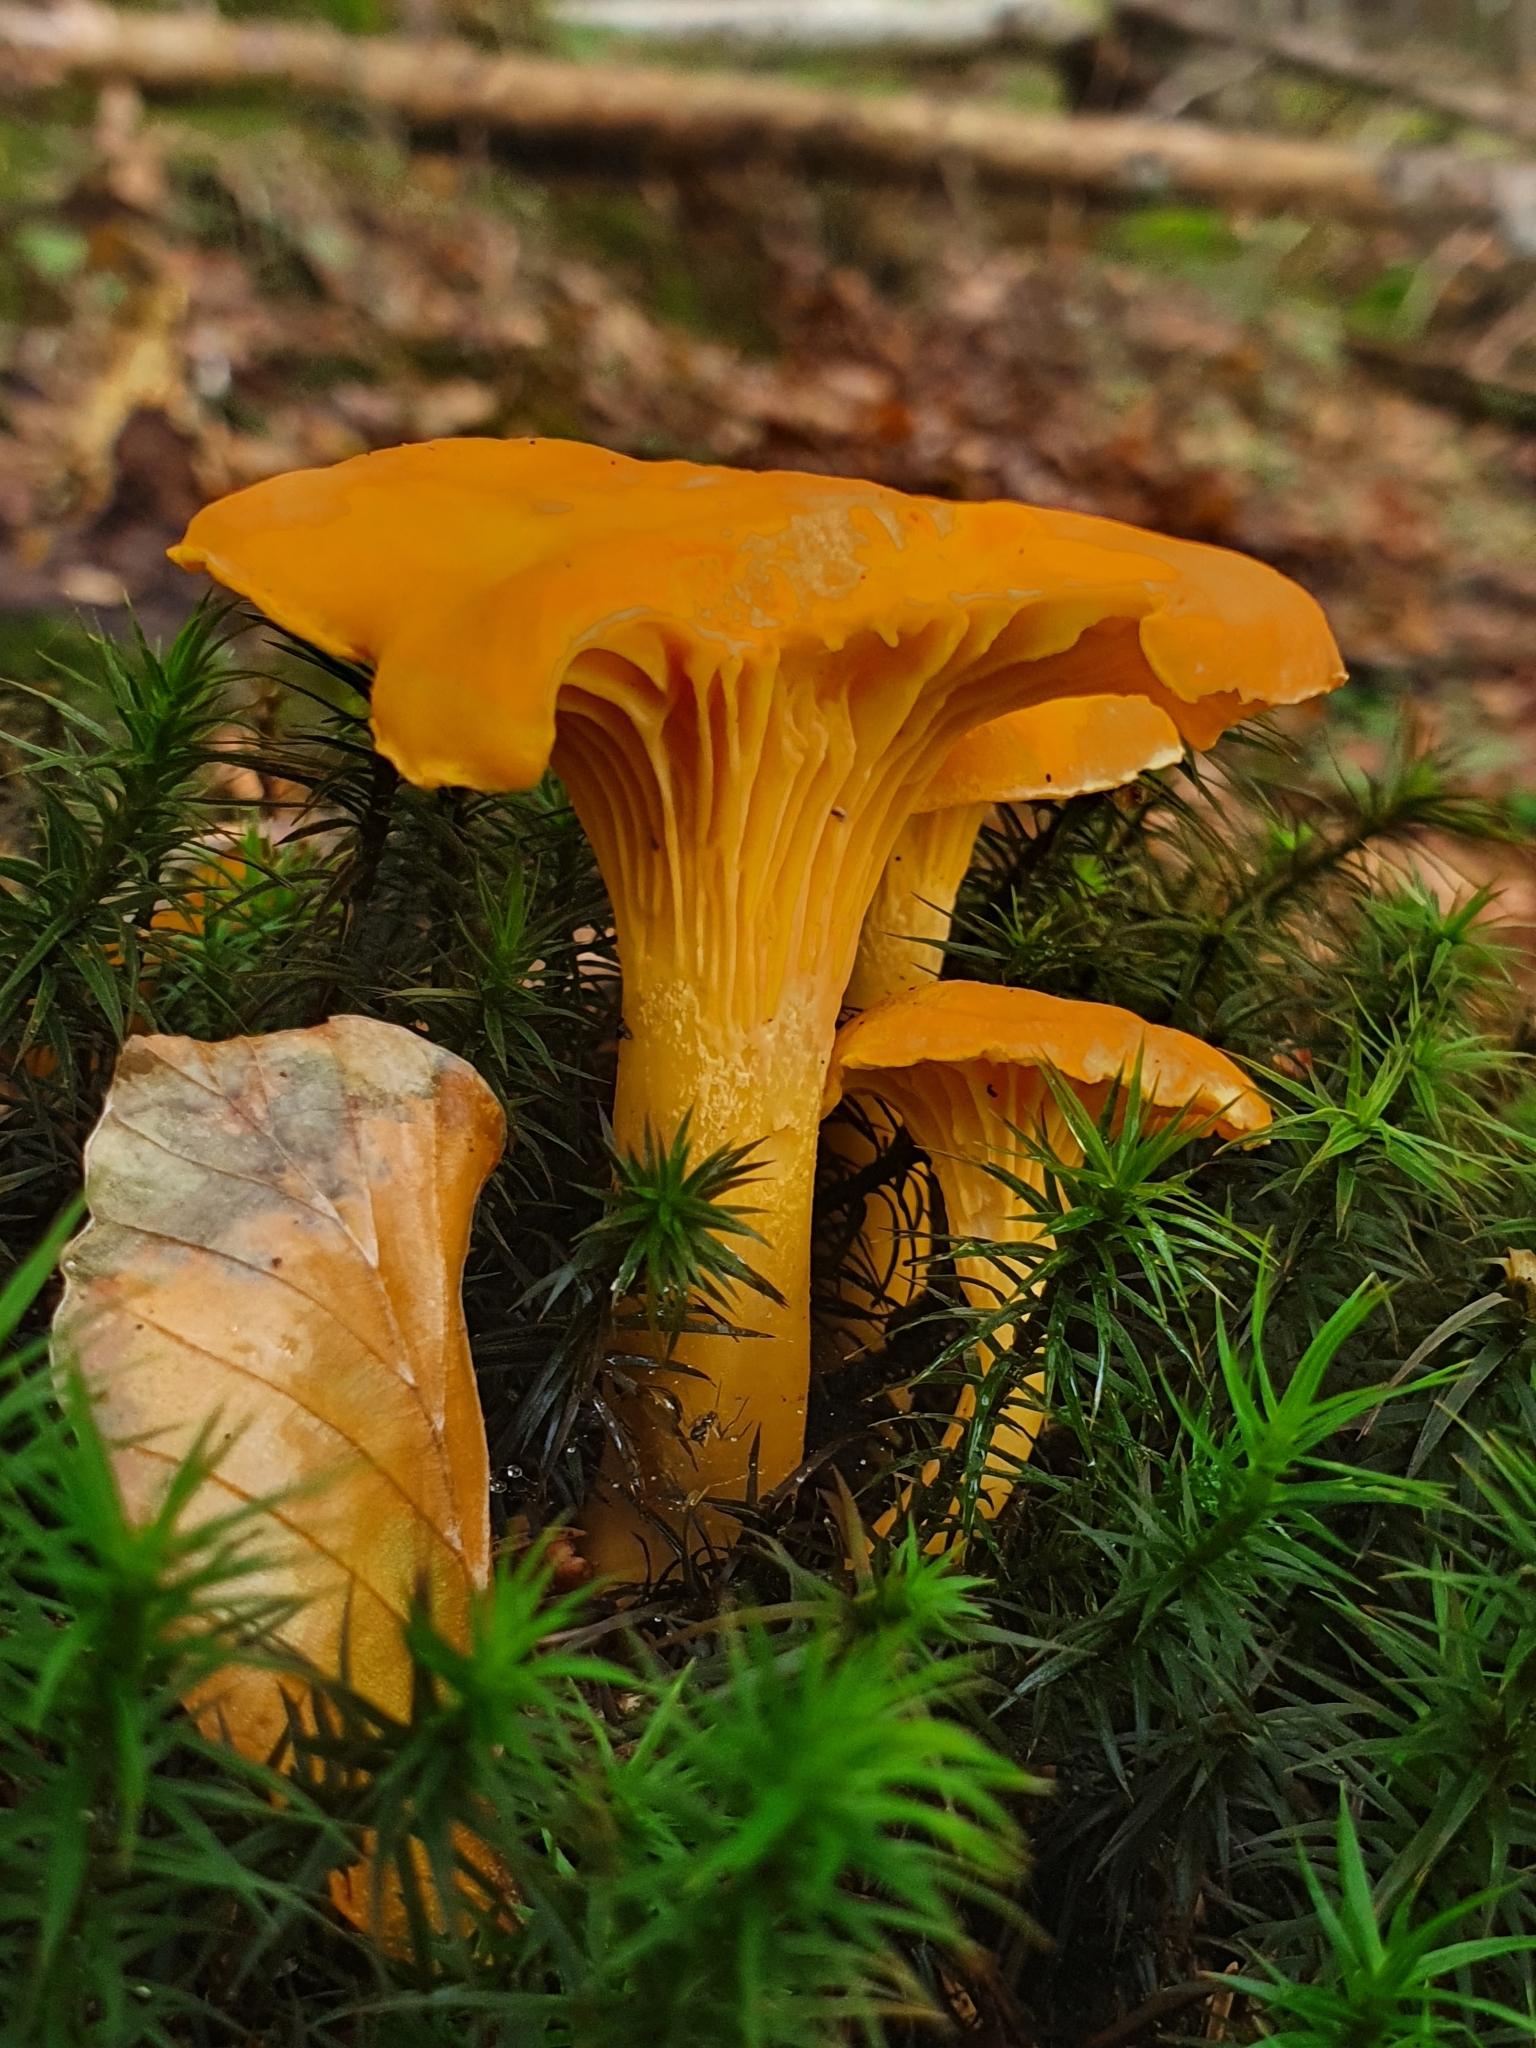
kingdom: Fungi
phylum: Basidiomycota
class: Agaricomycetes
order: Cantharellales
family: Hydnaceae
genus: Cantharellus
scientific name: Cantharellus cibarius
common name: Chanterelle
